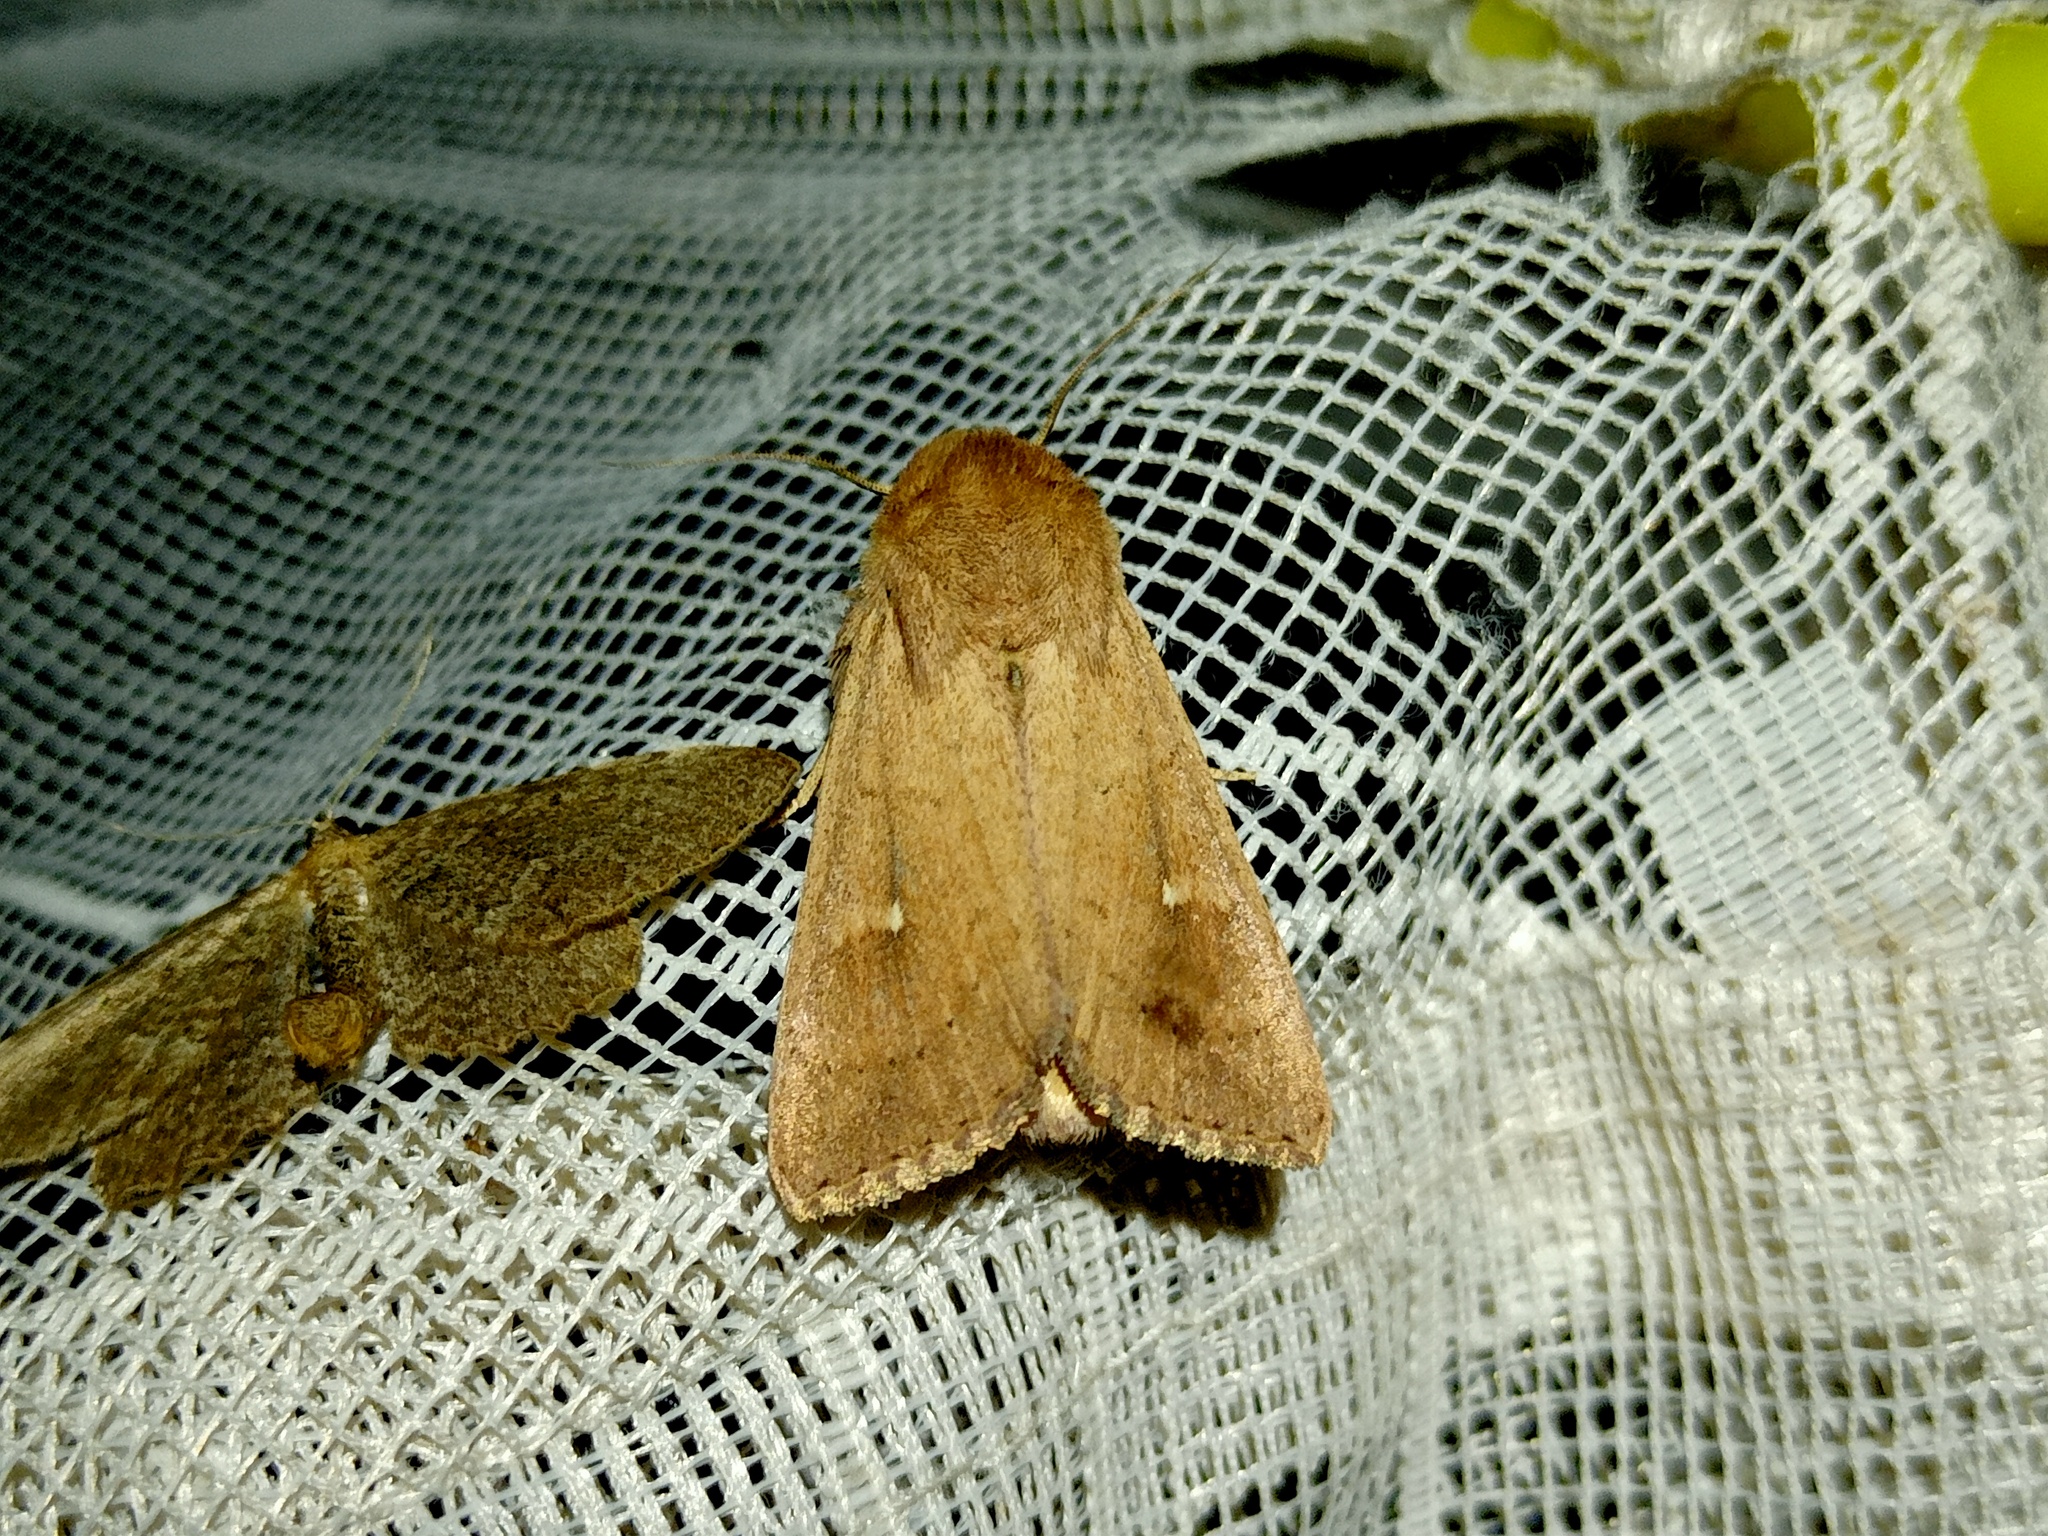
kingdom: Animalia
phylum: Arthropoda
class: Insecta
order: Lepidoptera
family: Noctuidae
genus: Mythimna
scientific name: Mythimna ferrago
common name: Clay
